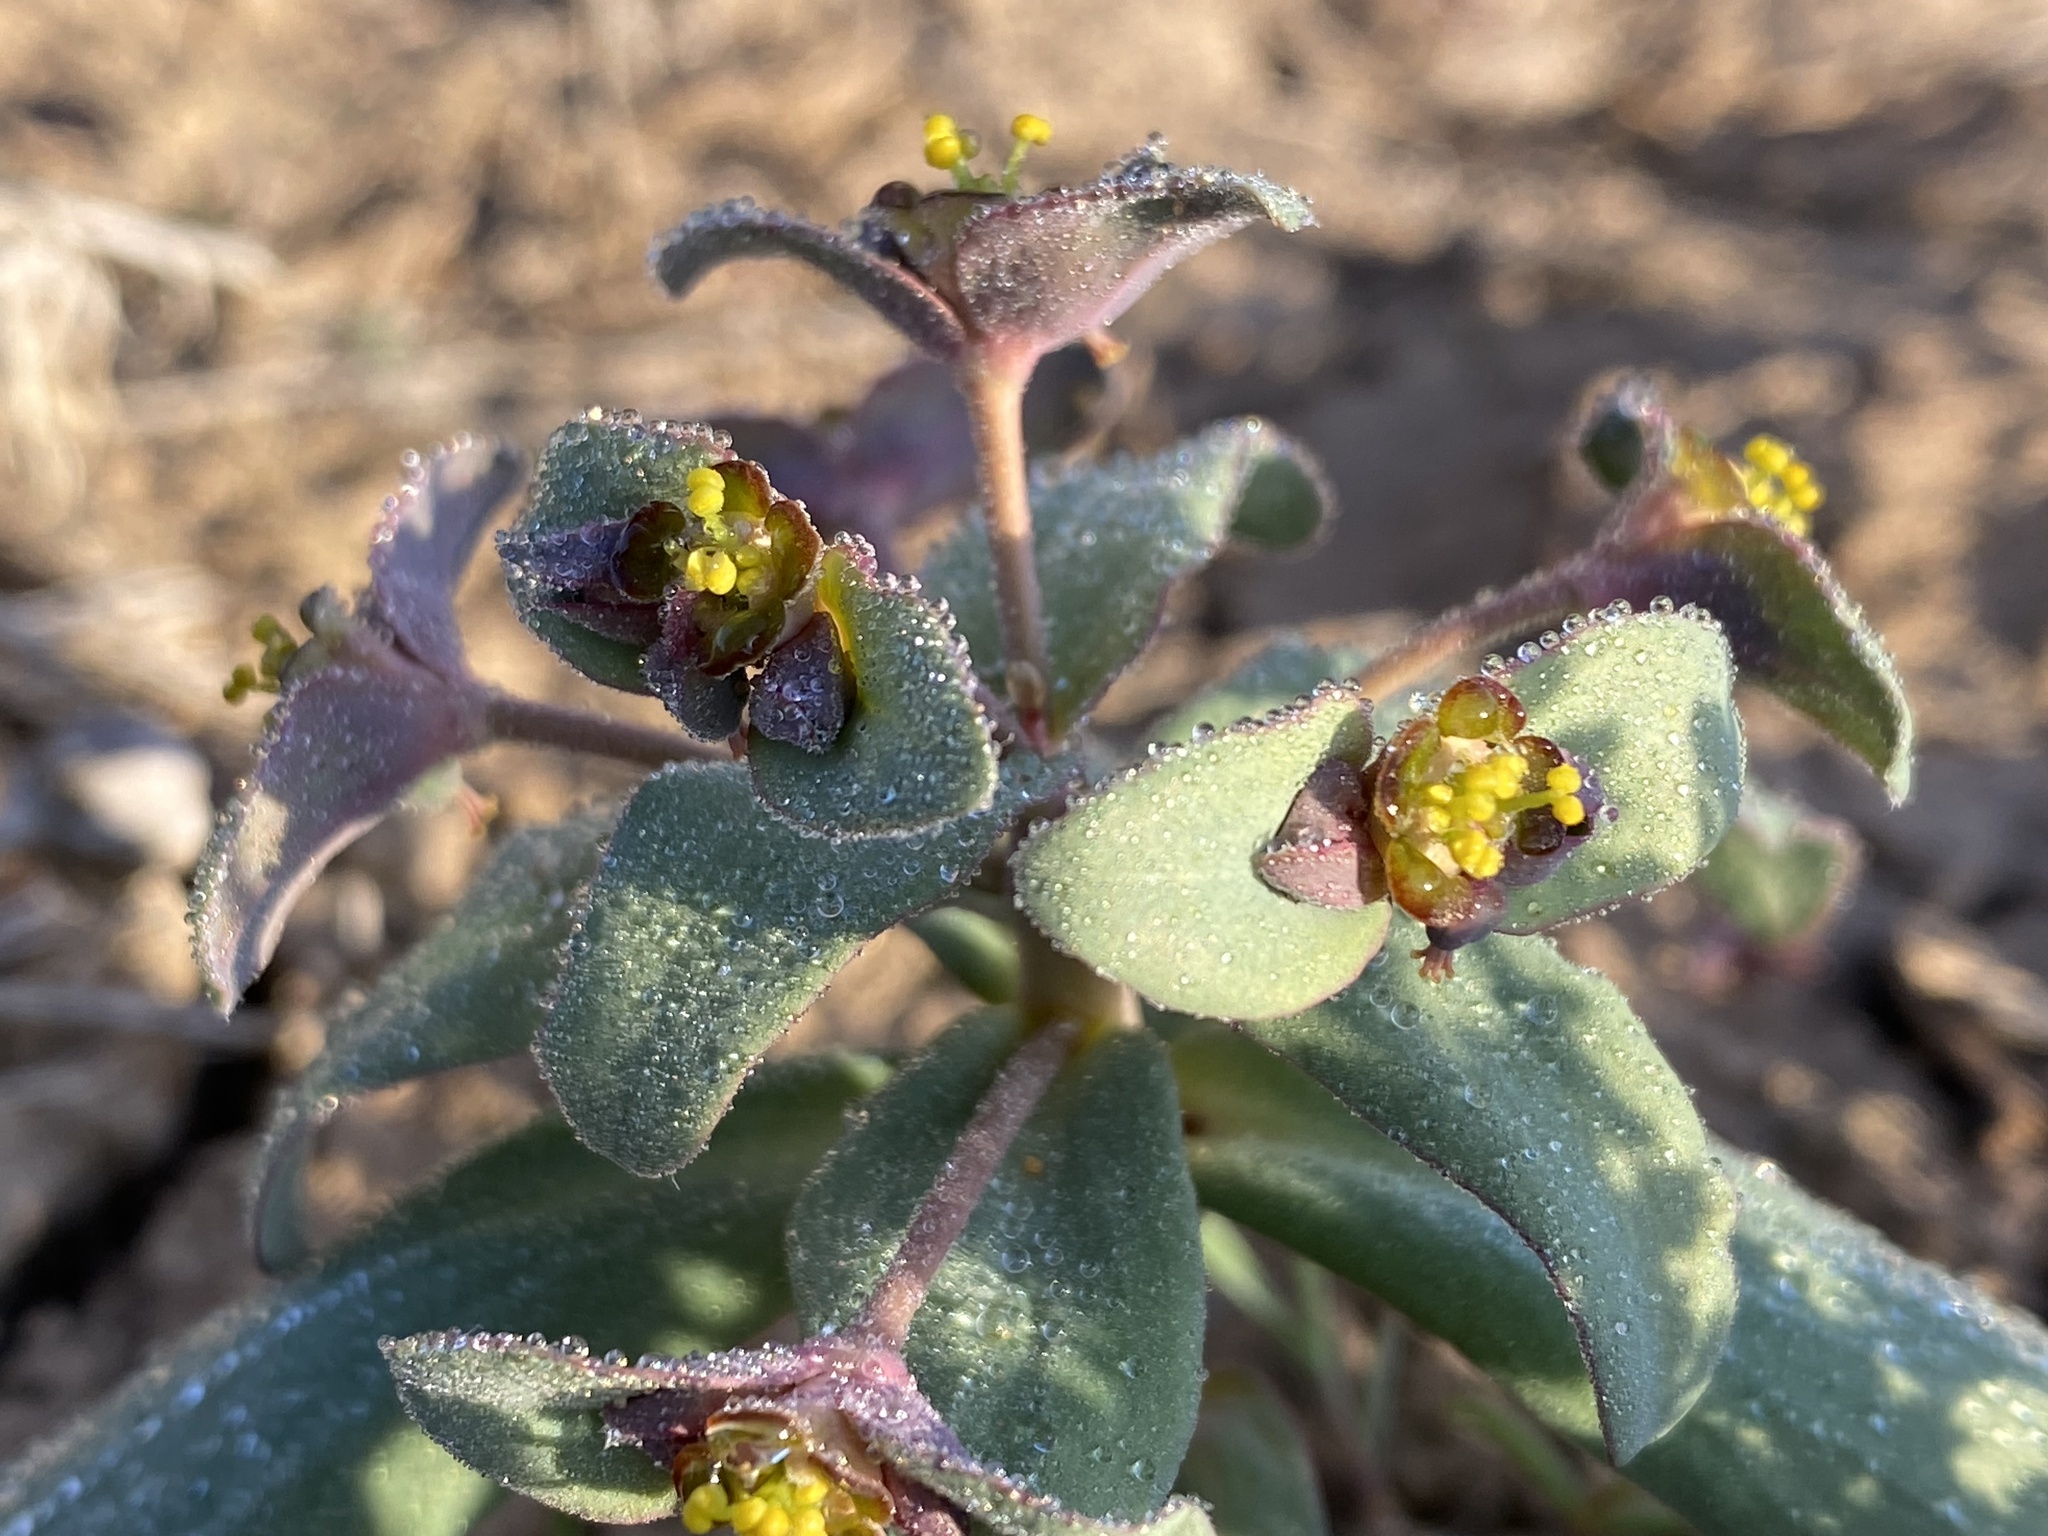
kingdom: Plantae
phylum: Tracheophyta
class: Magnoliopsida
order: Malpighiales
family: Euphorbiaceae
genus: Euphorbia
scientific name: Euphorbia rapulum
